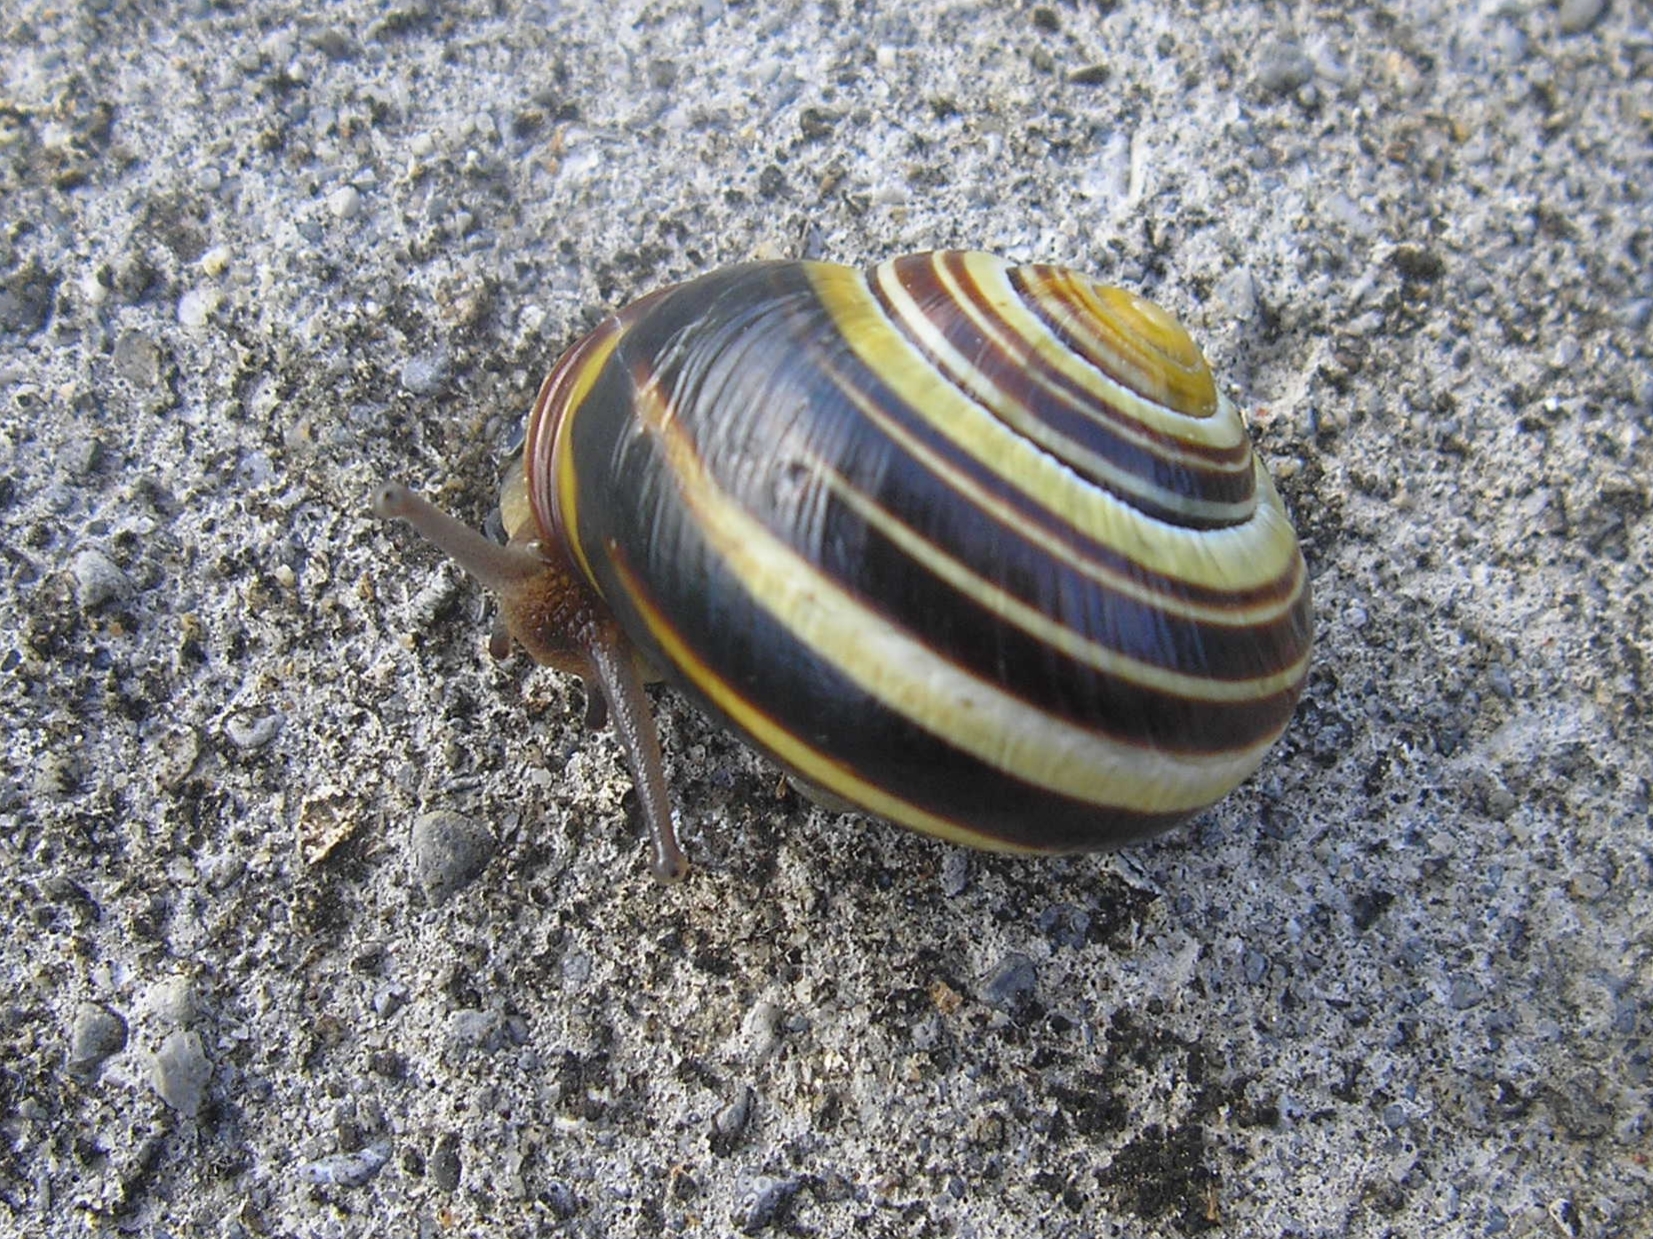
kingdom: Animalia
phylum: Mollusca
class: Gastropoda
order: Stylommatophora
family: Helicidae
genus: Cepaea
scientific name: Cepaea nemoralis
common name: Grovesnail
